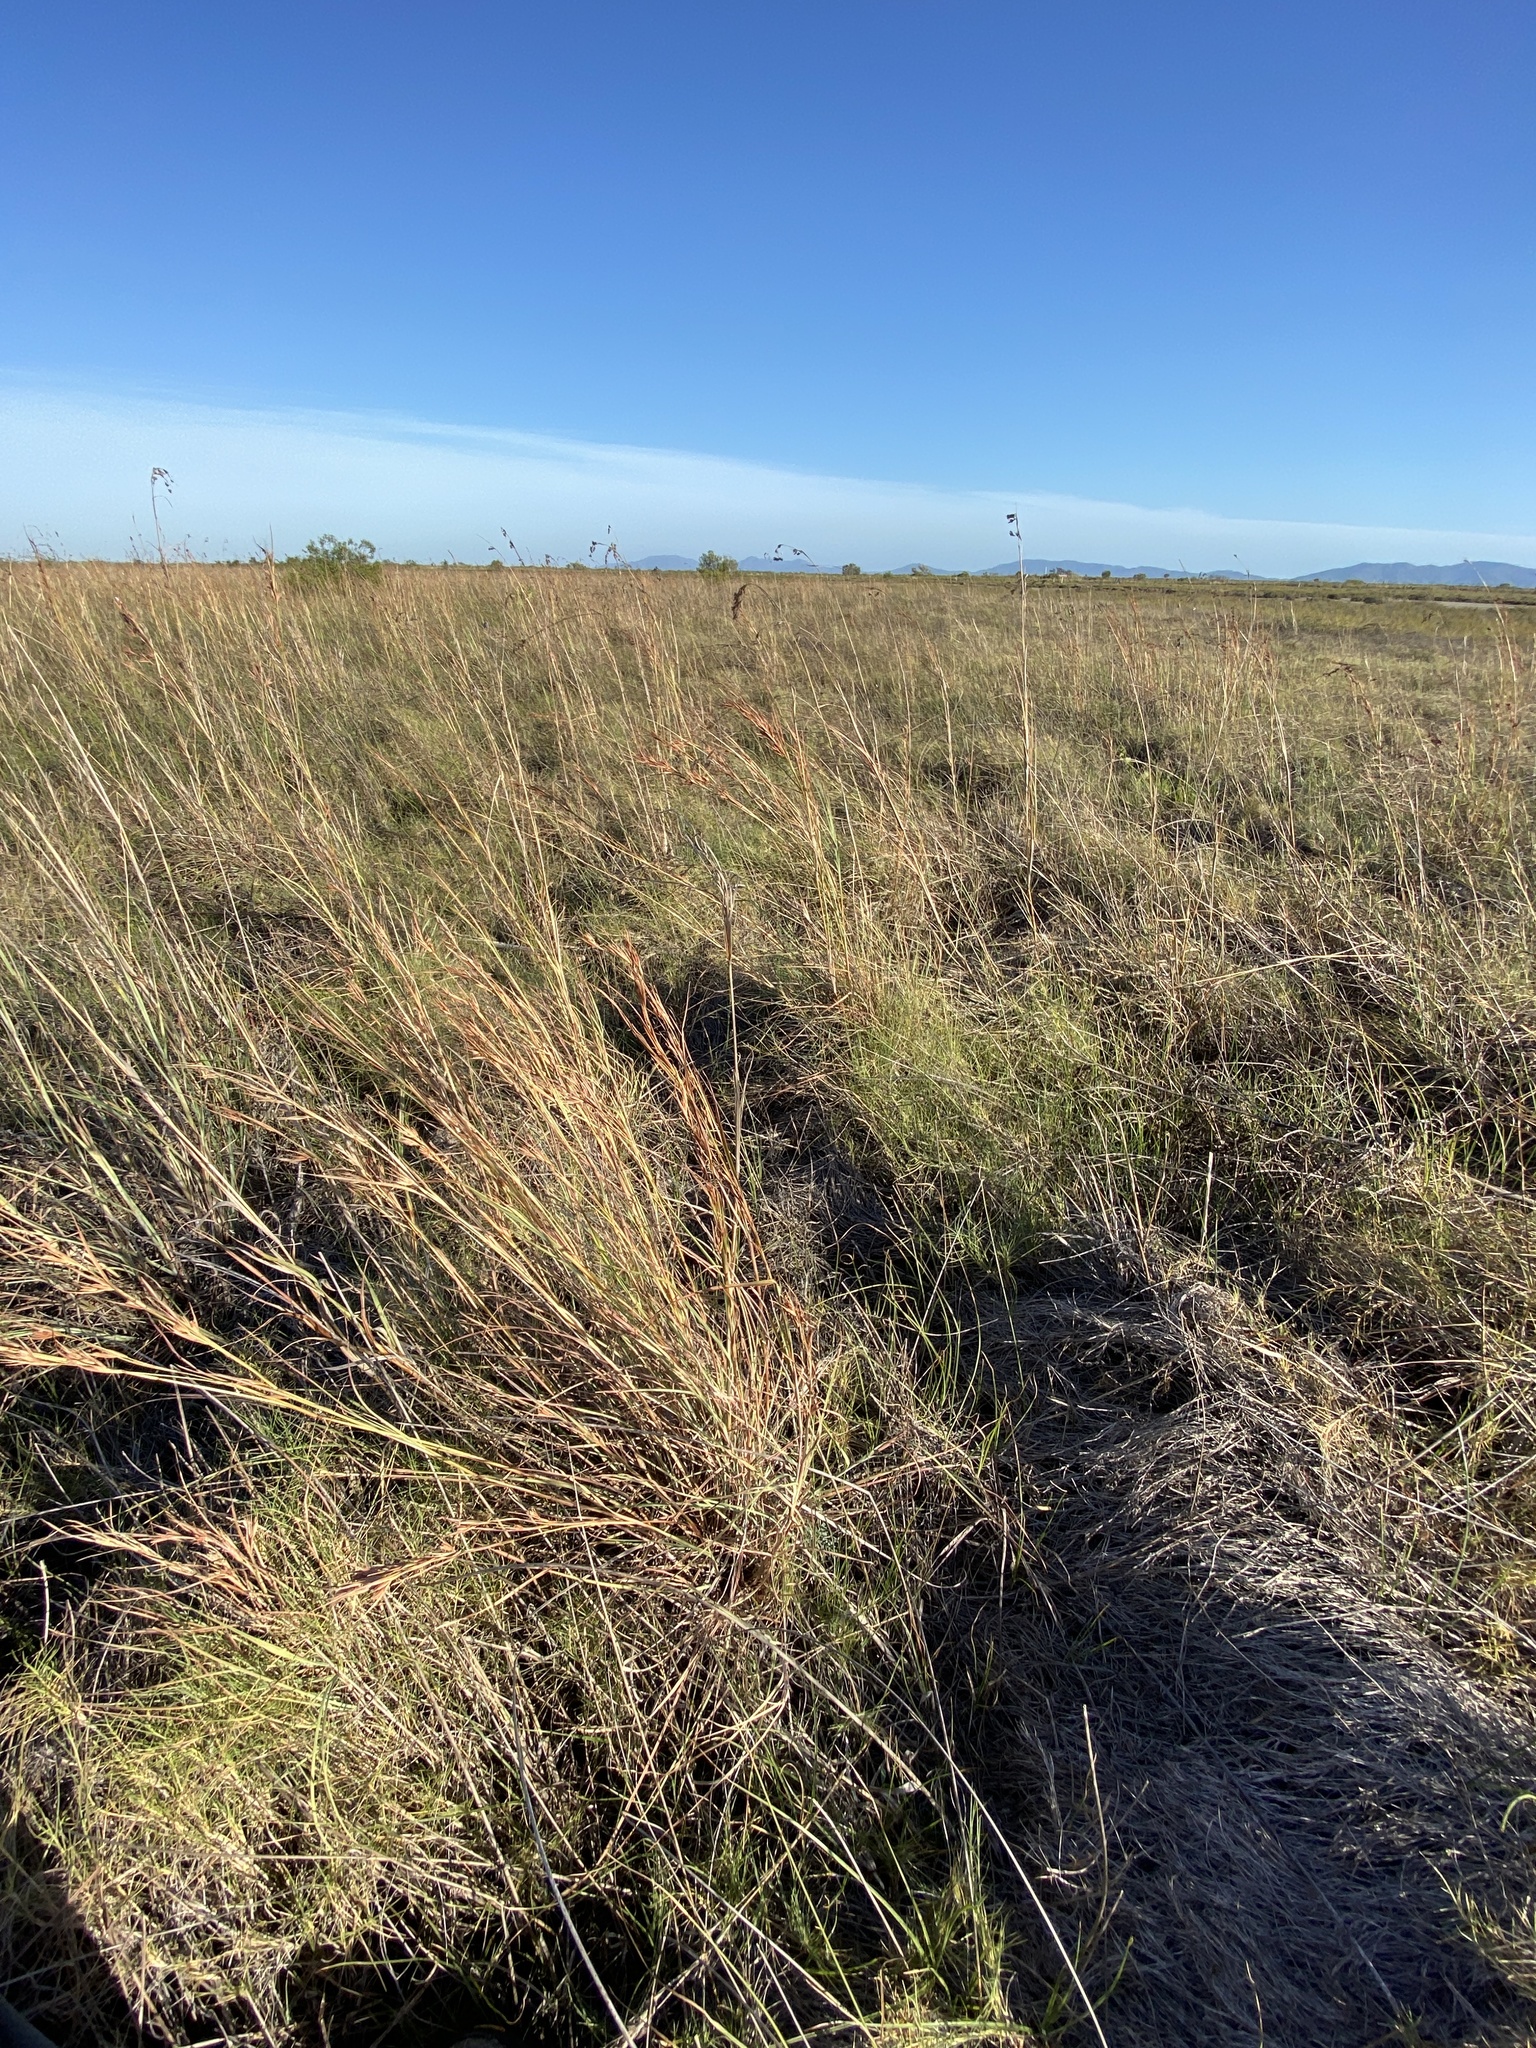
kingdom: Plantae
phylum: Tracheophyta
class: Liliopsida
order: Poales
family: Poaceae
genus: Themeda
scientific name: Themeda triandra
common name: Kangaroo grass
